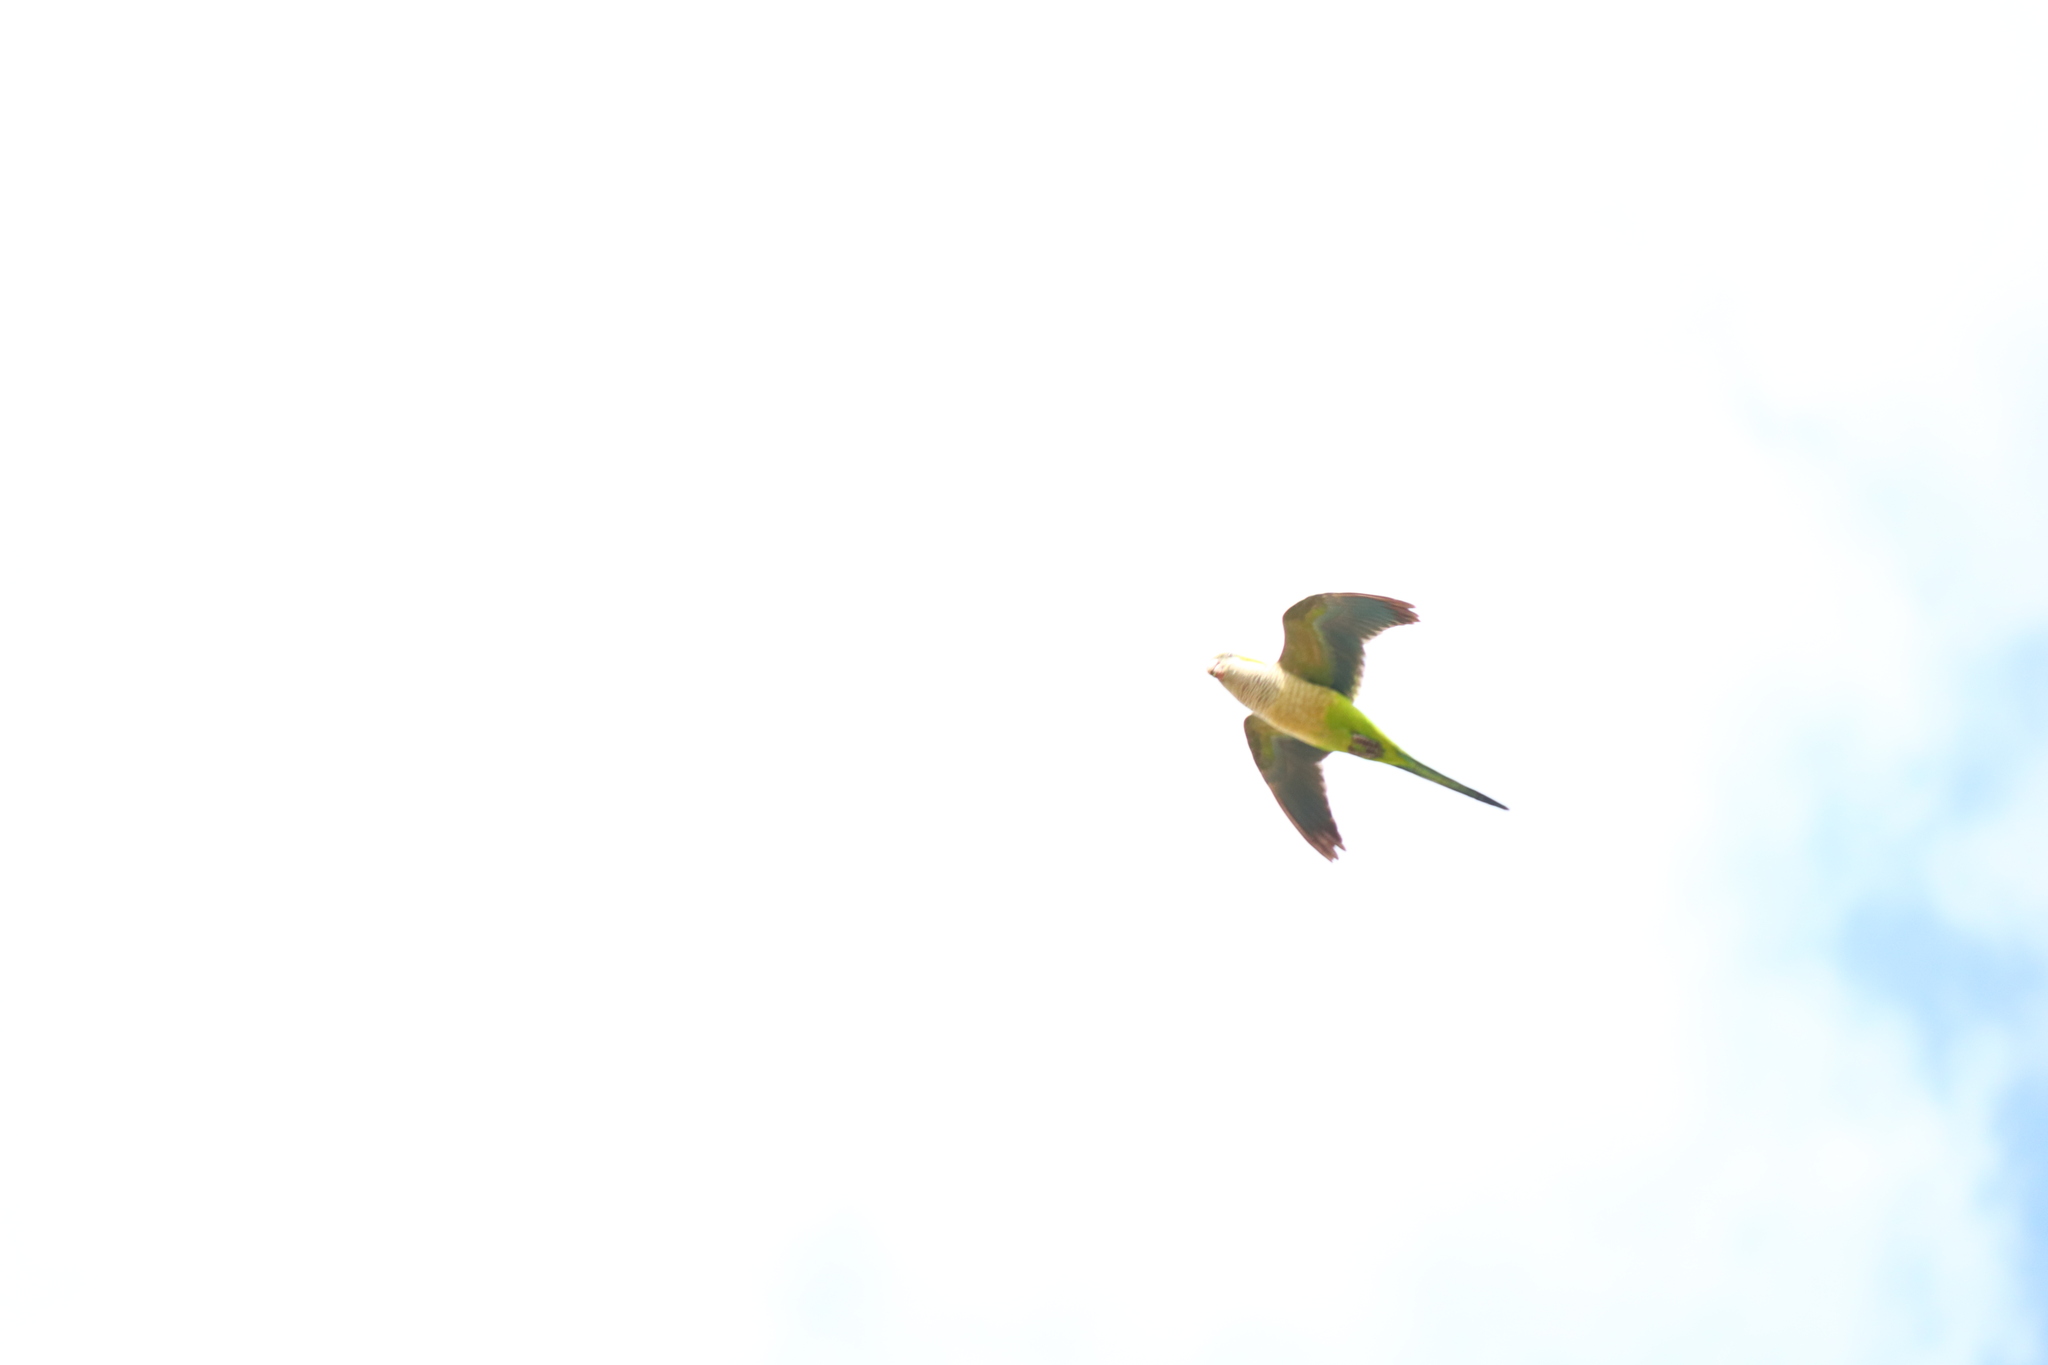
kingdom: Animalia
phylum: Chordata
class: Aves
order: Psittaciformes
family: Psittacidae
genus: Myiopsitta
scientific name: Myiopsitta monachus
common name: Monk parakeet
